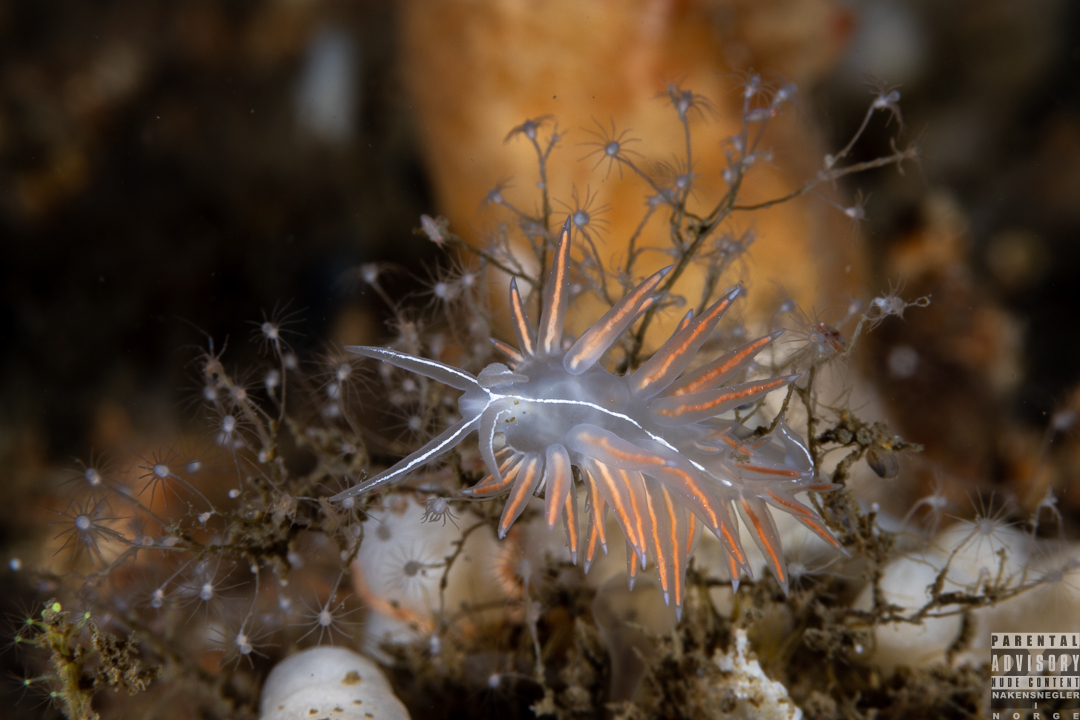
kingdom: Animalia
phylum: Mollusca
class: Gastropoda
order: Nudibranchia
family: Coryphellidae
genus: Coryphella
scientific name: Coryphella chriskaugei
